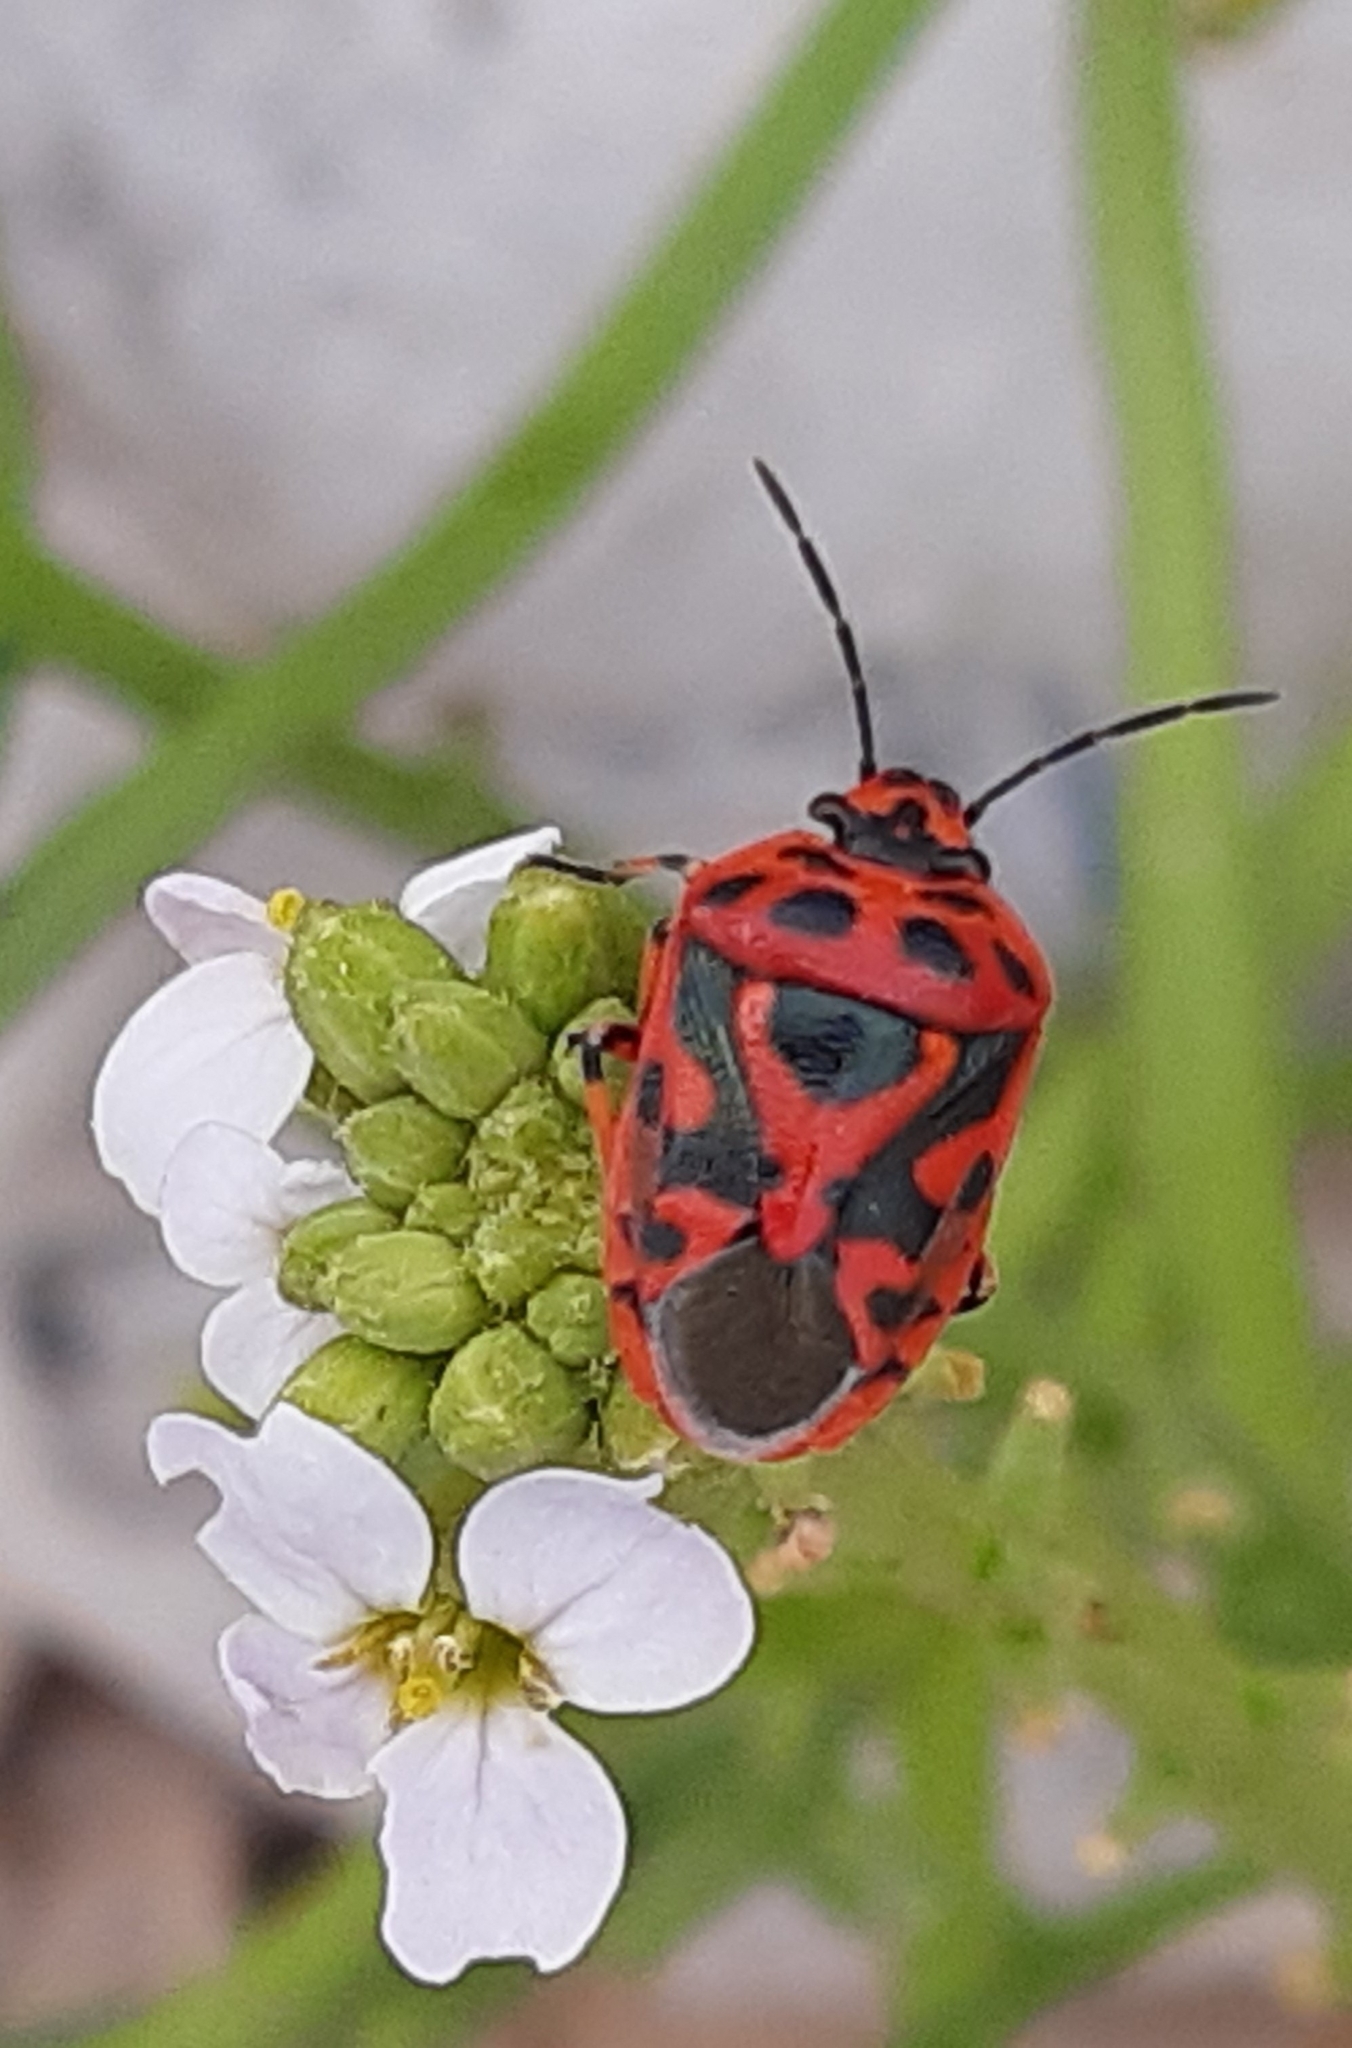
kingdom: Animalia
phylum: Arthropoda
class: Insecta
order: Hemiptera
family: Pentatomidae
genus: Eurydema
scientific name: Eurydema ornata
